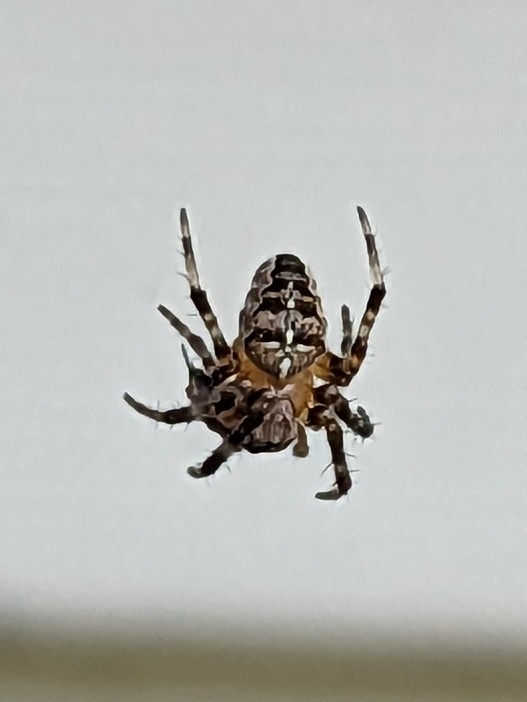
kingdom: Animalia
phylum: Arthropoda
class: Arachnida
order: Araneae
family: Araneidae
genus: Araneus
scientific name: Araneus diadematus
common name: Cross orbweaver
